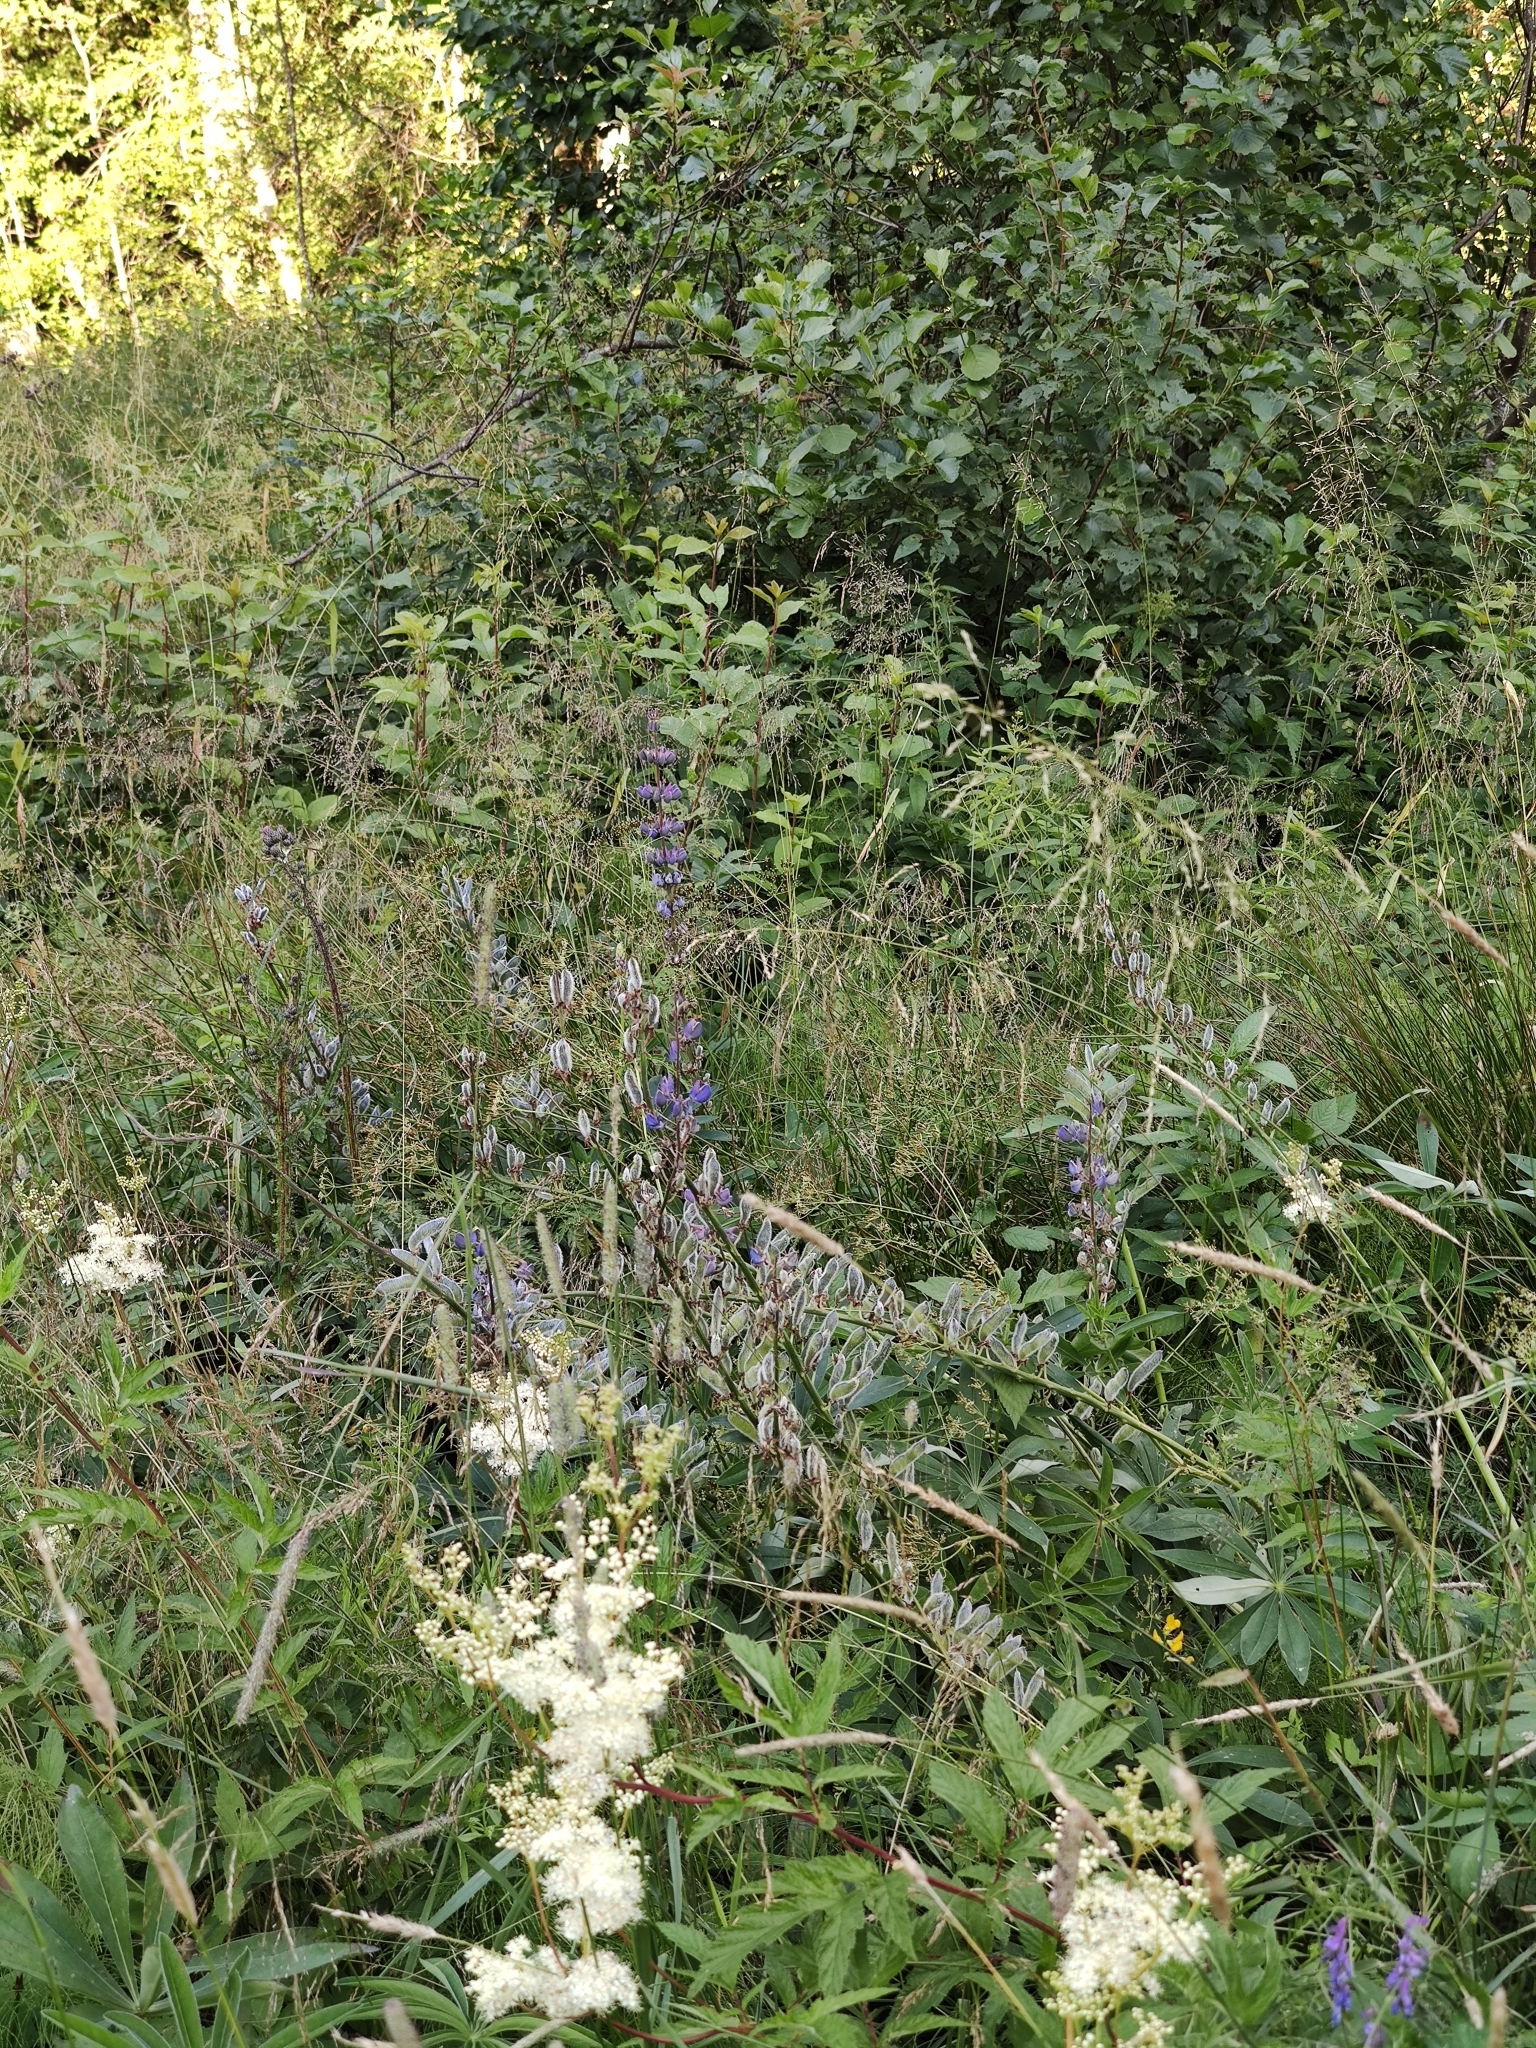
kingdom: Plantae
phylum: Tracheophyta
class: Magnoliopsida
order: Fabales
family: Fabaceae
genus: Lupinus
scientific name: Lupinus polyphyllus
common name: Garden lupin
